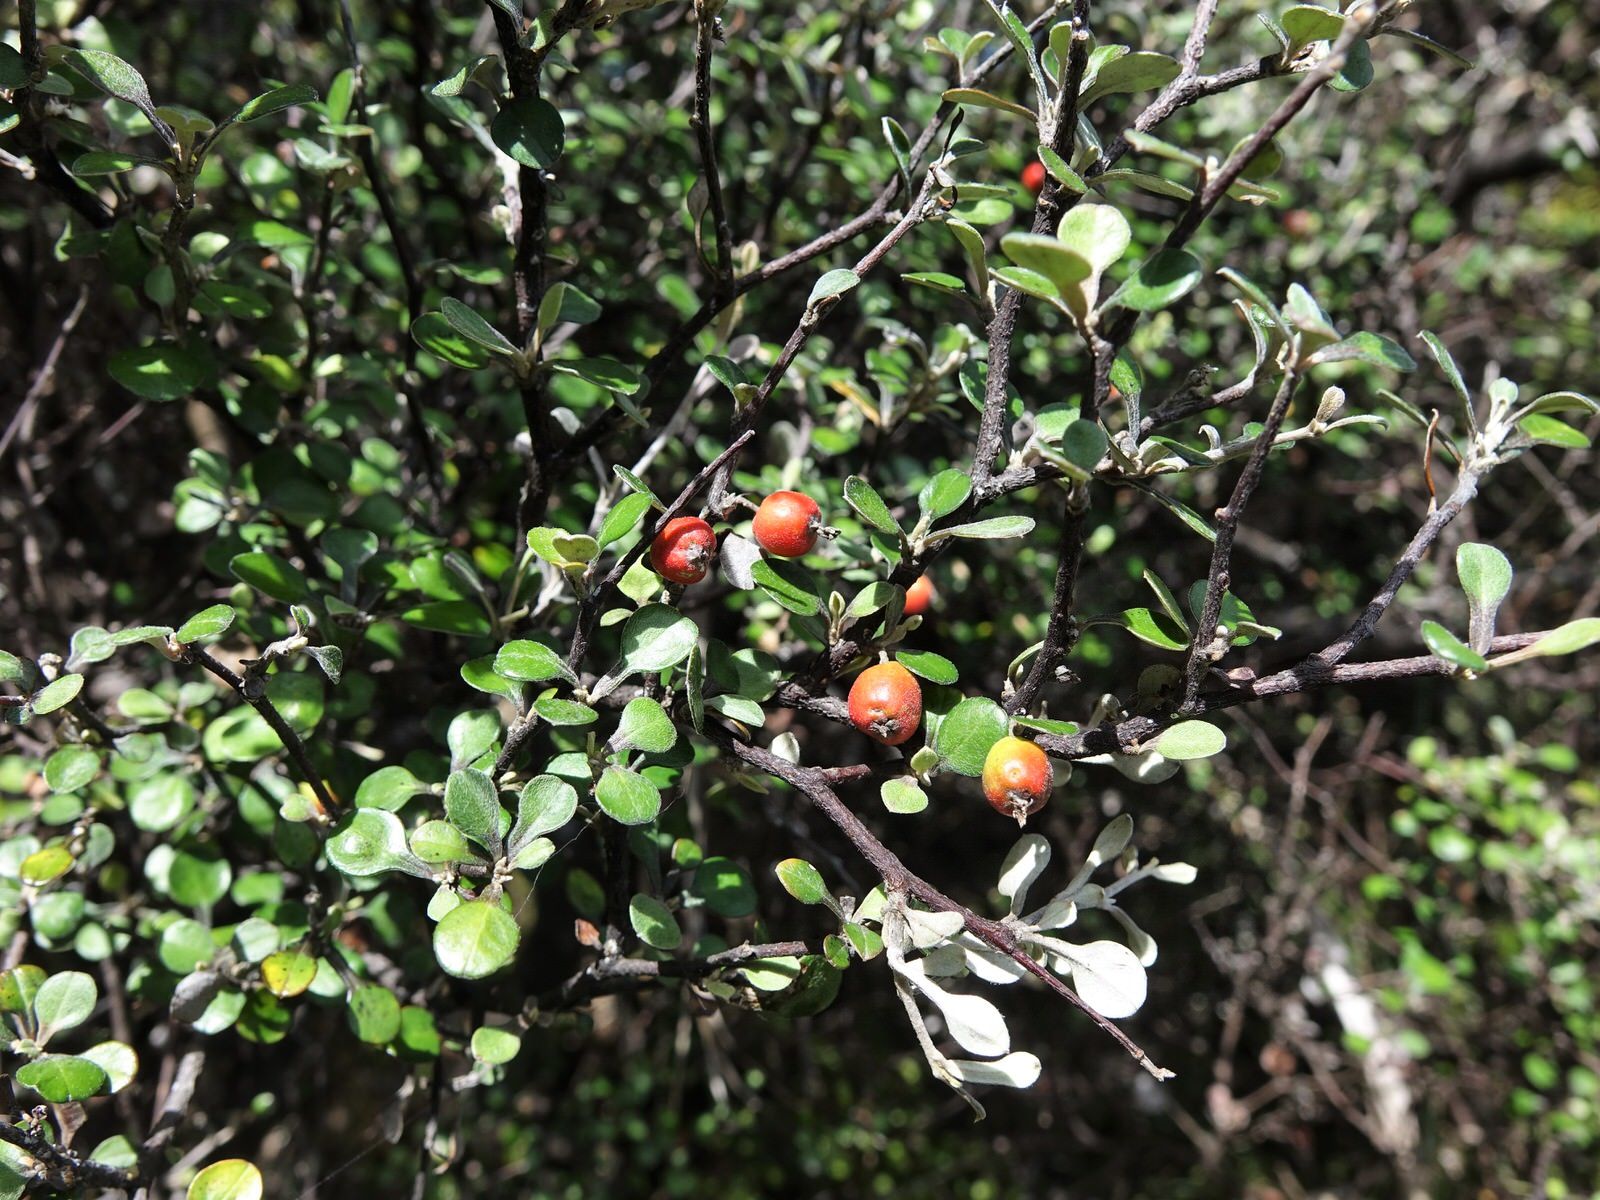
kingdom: Plantae
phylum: Tracheophyta
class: Magnoliopsida
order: Asterales
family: Argophyllaceae
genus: Corokia
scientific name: Corokia cotoneaster
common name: Wire nettingbush
